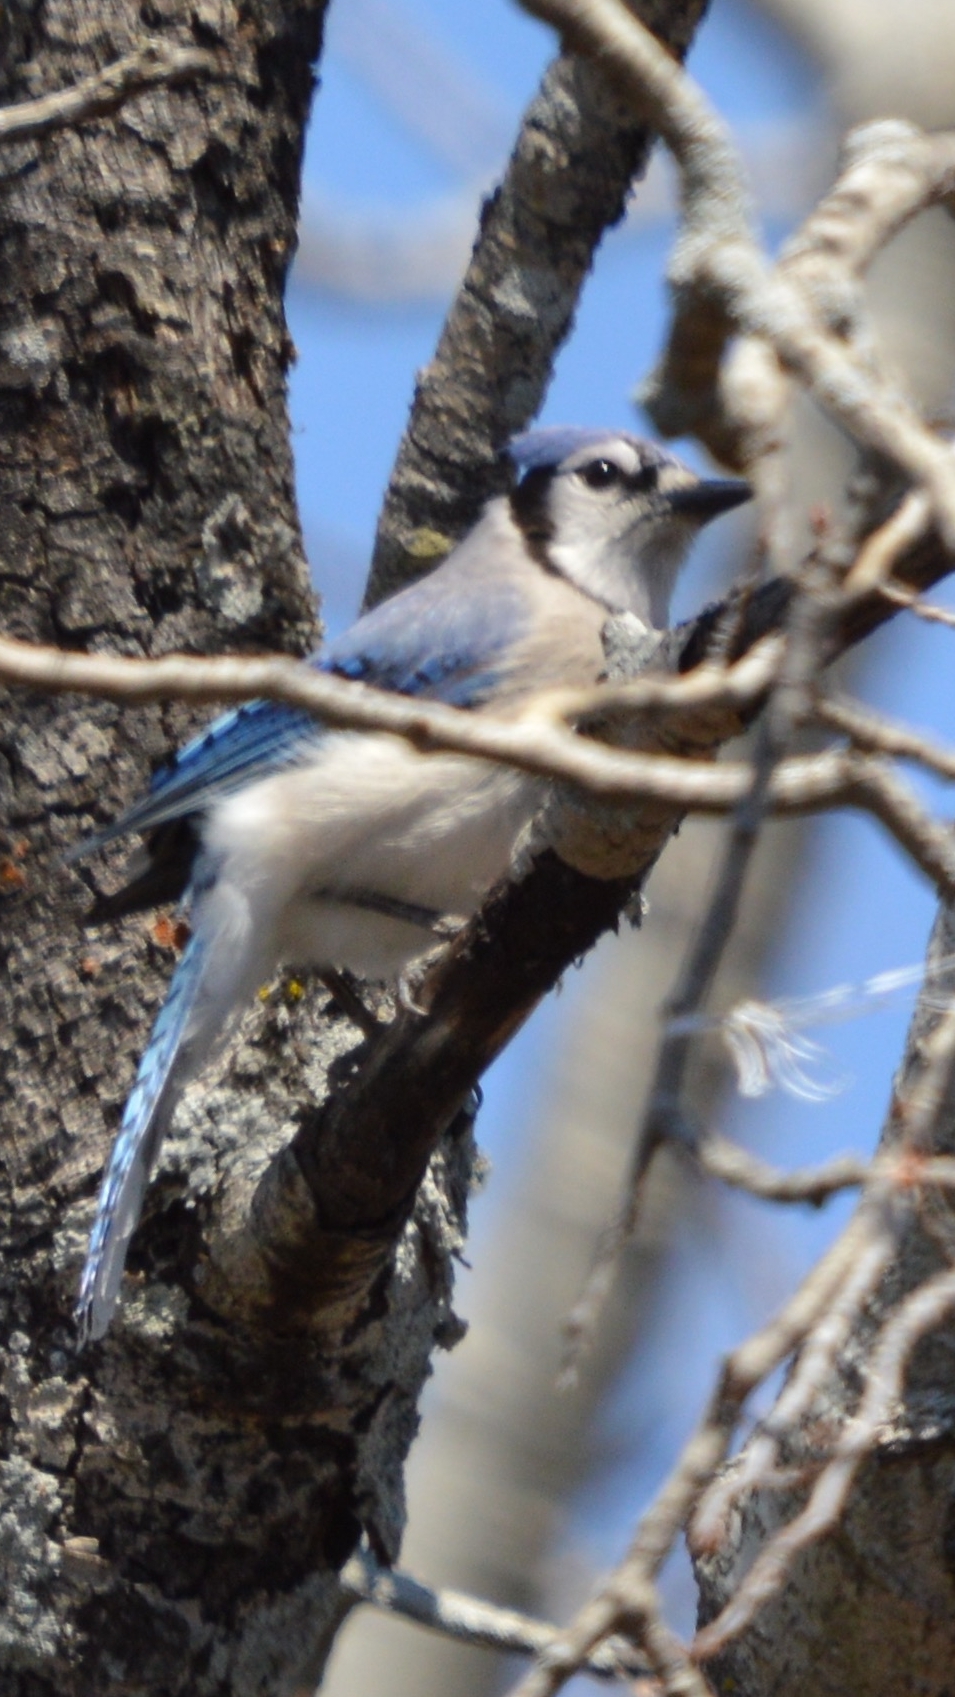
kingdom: Animalia
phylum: Chordata
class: Aves
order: Passeriformes
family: Corvidae
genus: Cyanocitta
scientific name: Cyanocitta cristata
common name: Blue jay
